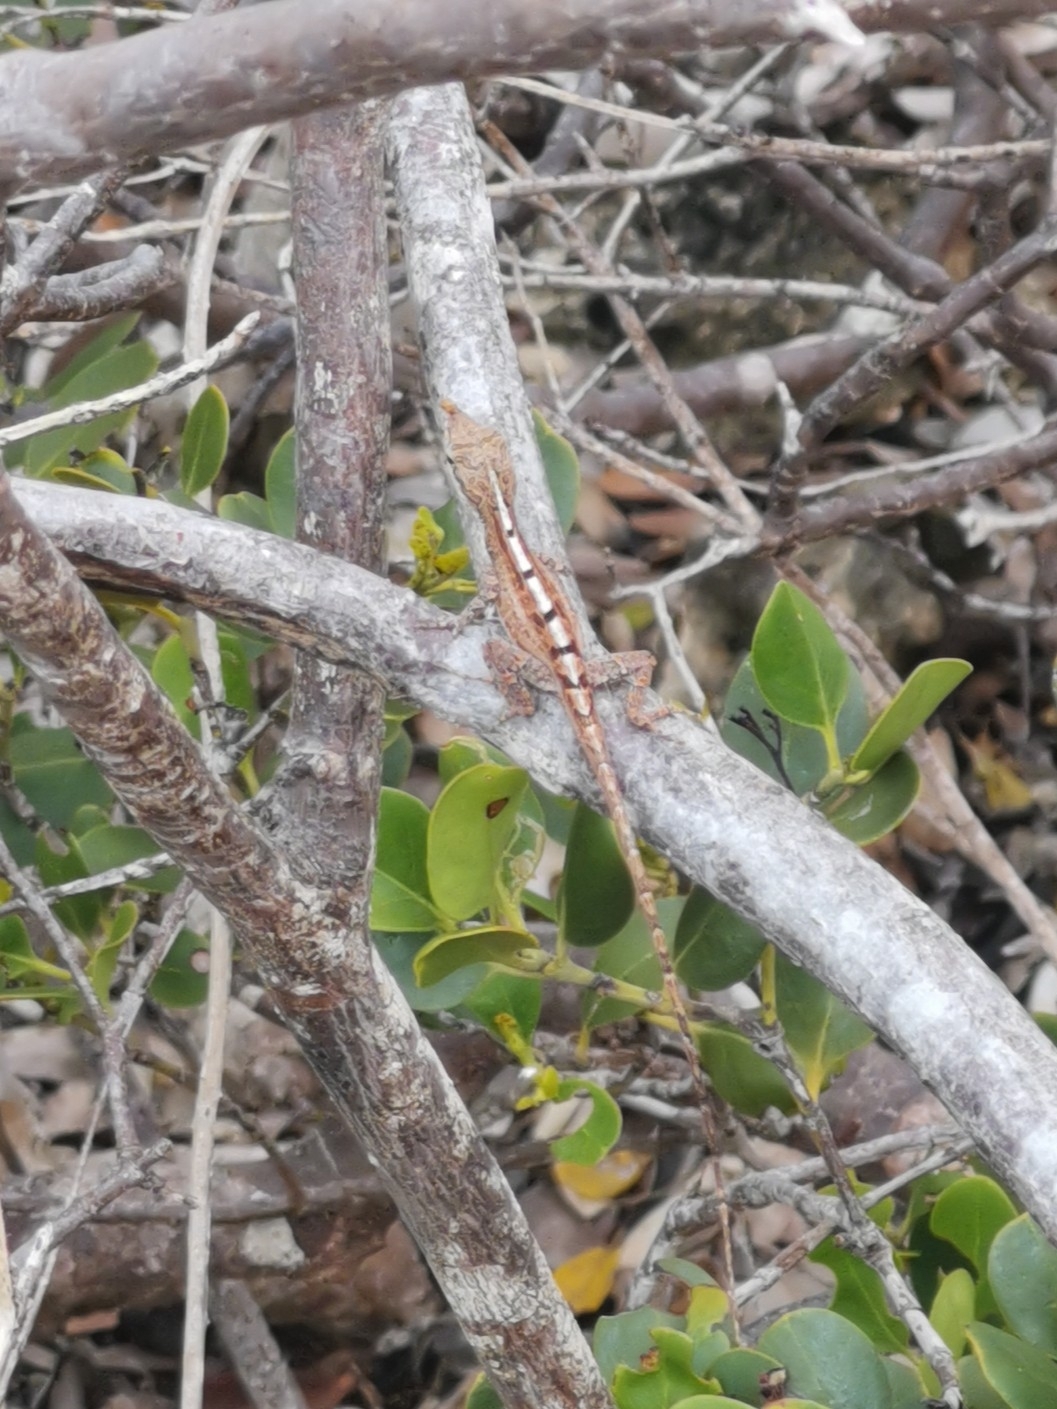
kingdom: Animalia
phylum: Chordata
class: Squamata
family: Dactyloidae
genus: Anolis
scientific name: Anolis scriptus
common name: Silver key anole
